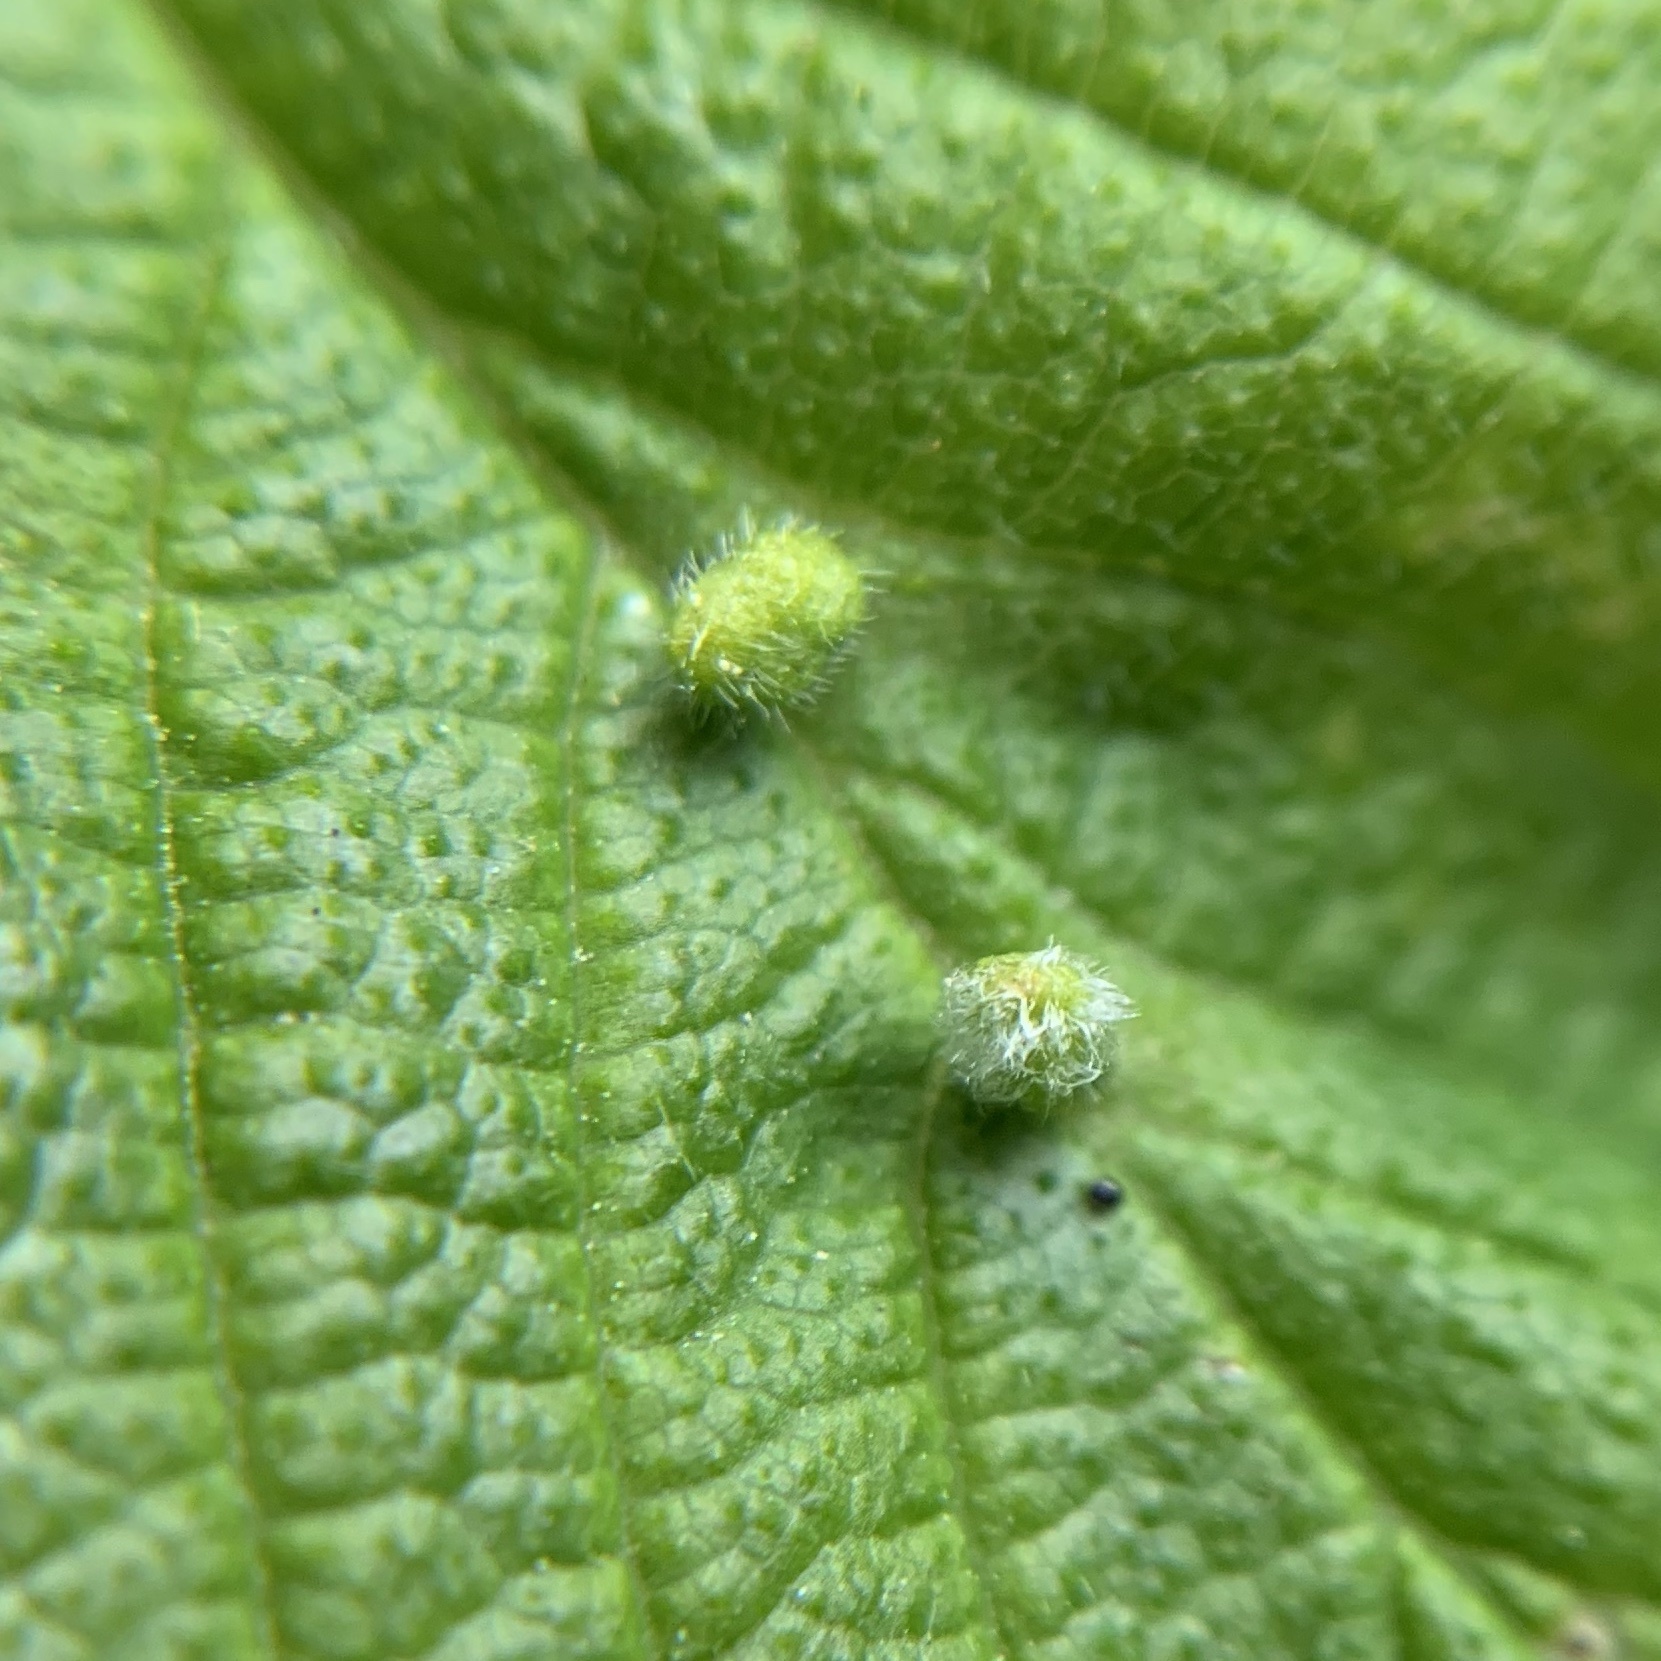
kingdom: Animalia
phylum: Arthropoda
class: Arachnida
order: Trombidiformes
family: Eriophyidae
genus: Aceria
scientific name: Aceria
